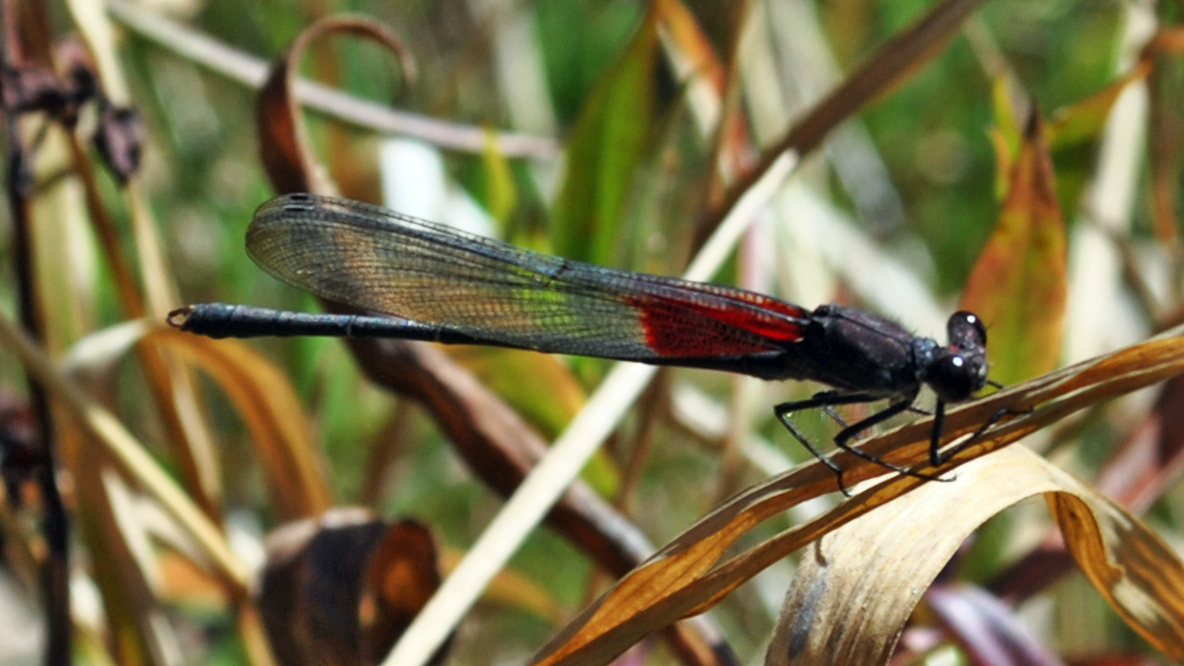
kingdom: Animalia
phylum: Arthropoda
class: Insecta
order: Odonata
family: Calopterygidae
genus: Hetaerina
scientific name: Hetaerina americana
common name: American rubyspot
